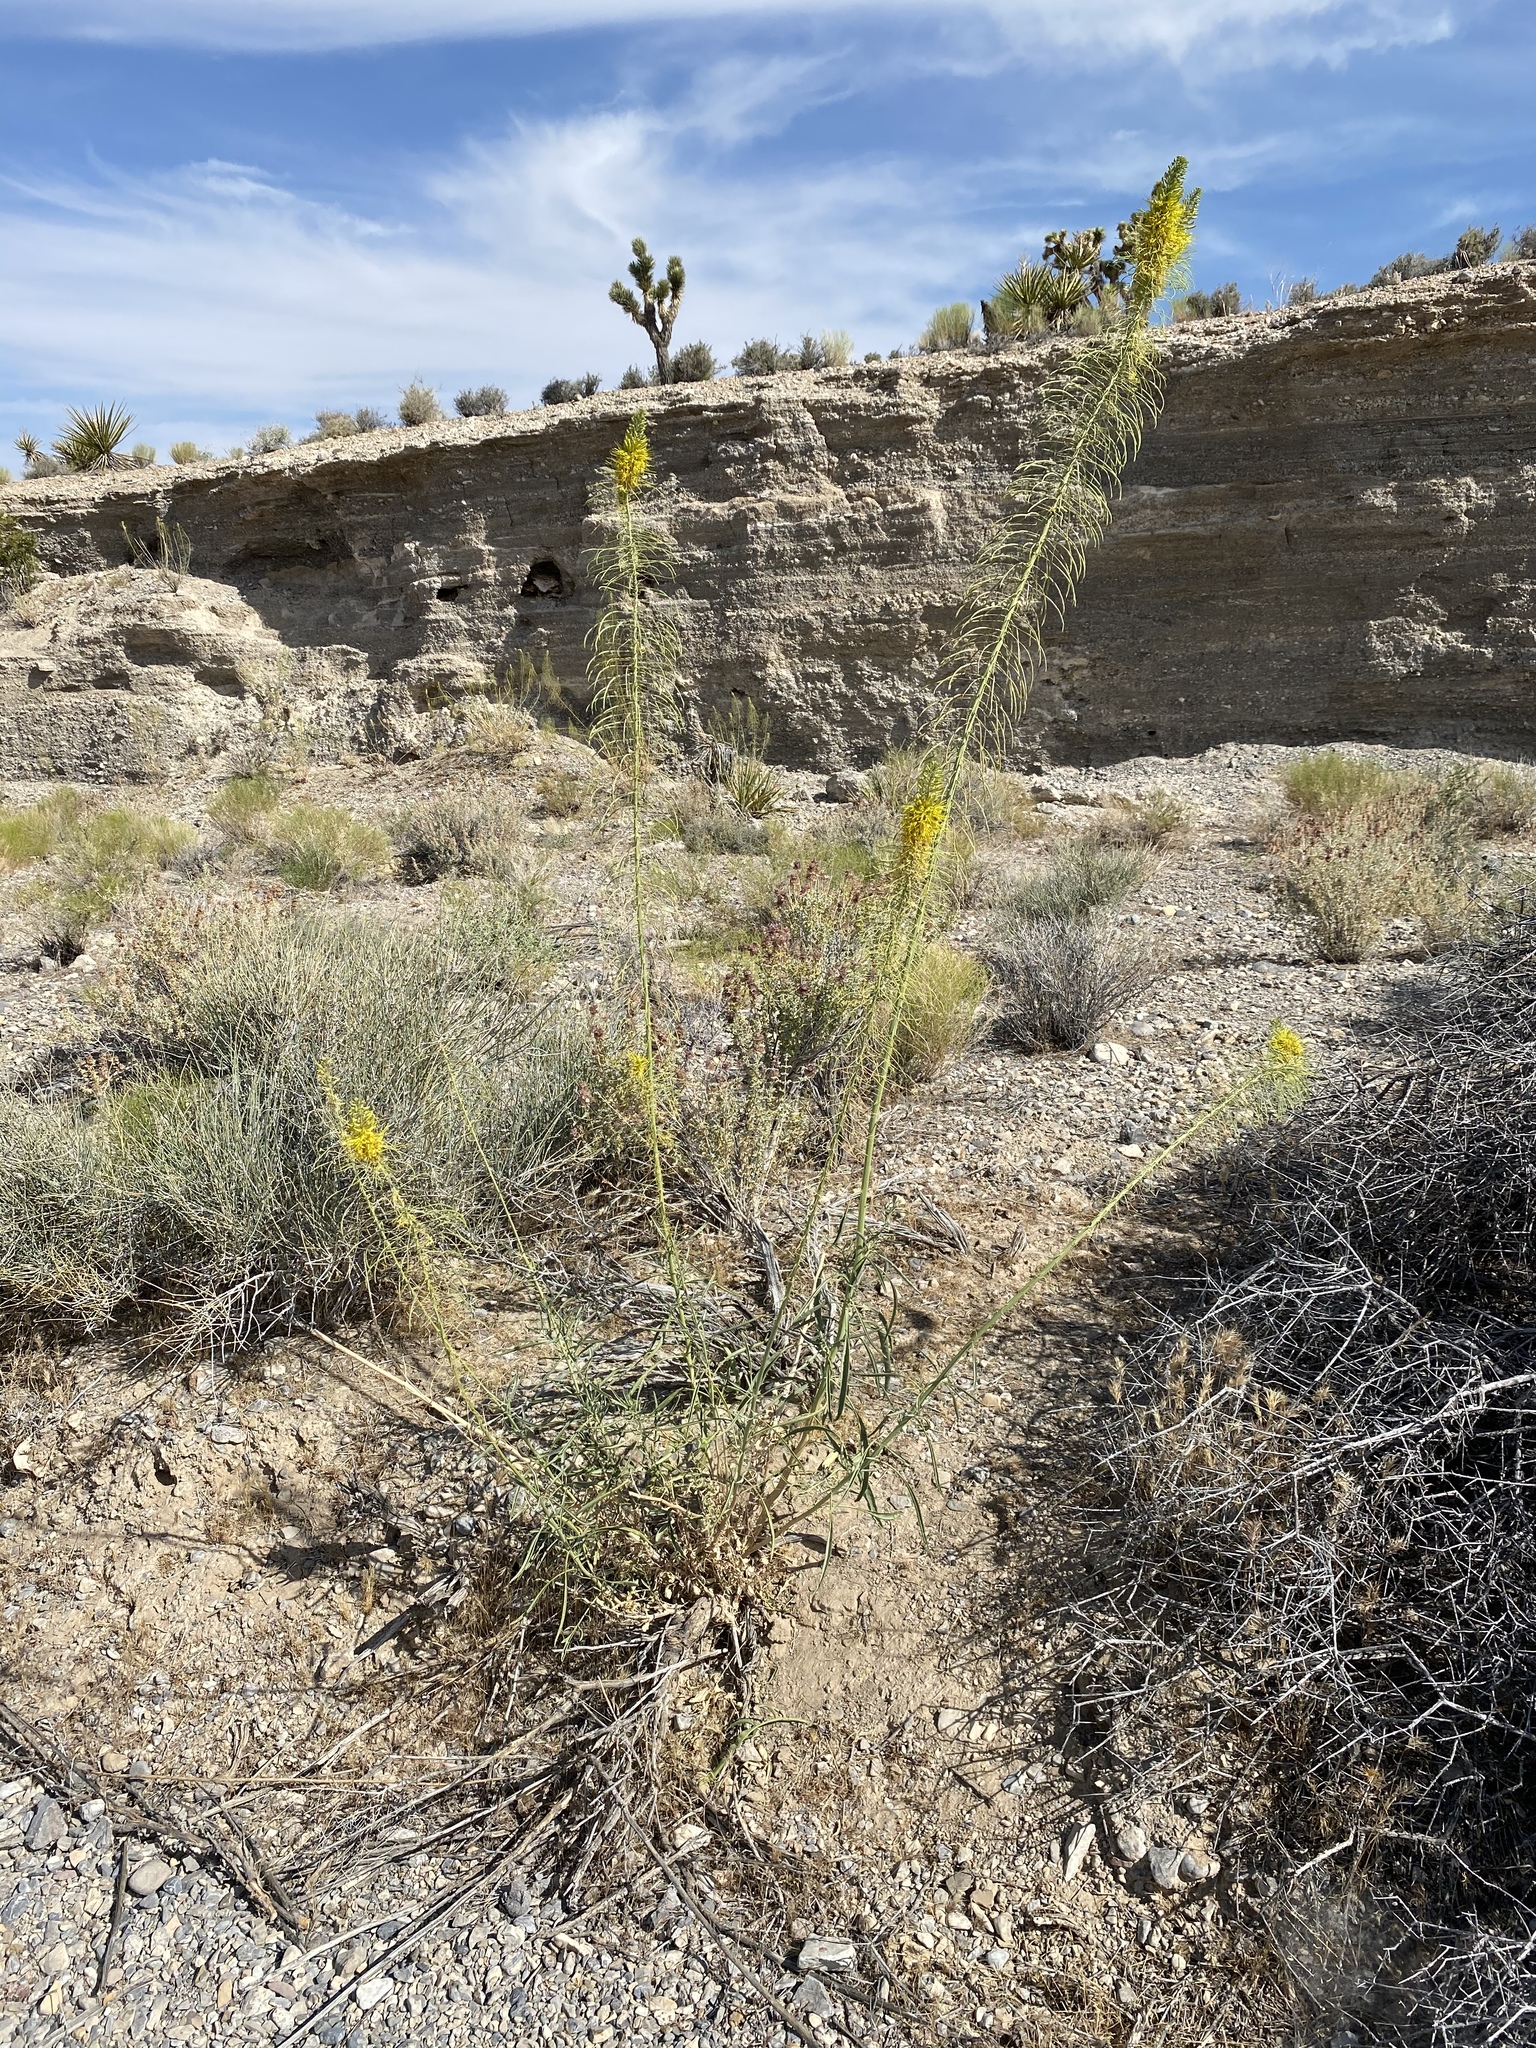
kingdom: Plantae
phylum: Tracheophyta
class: Magnoliopsida
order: Brassicales
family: Brassicaceae
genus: Stanleya
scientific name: Stanleya pinnata
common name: Prince's-plume
